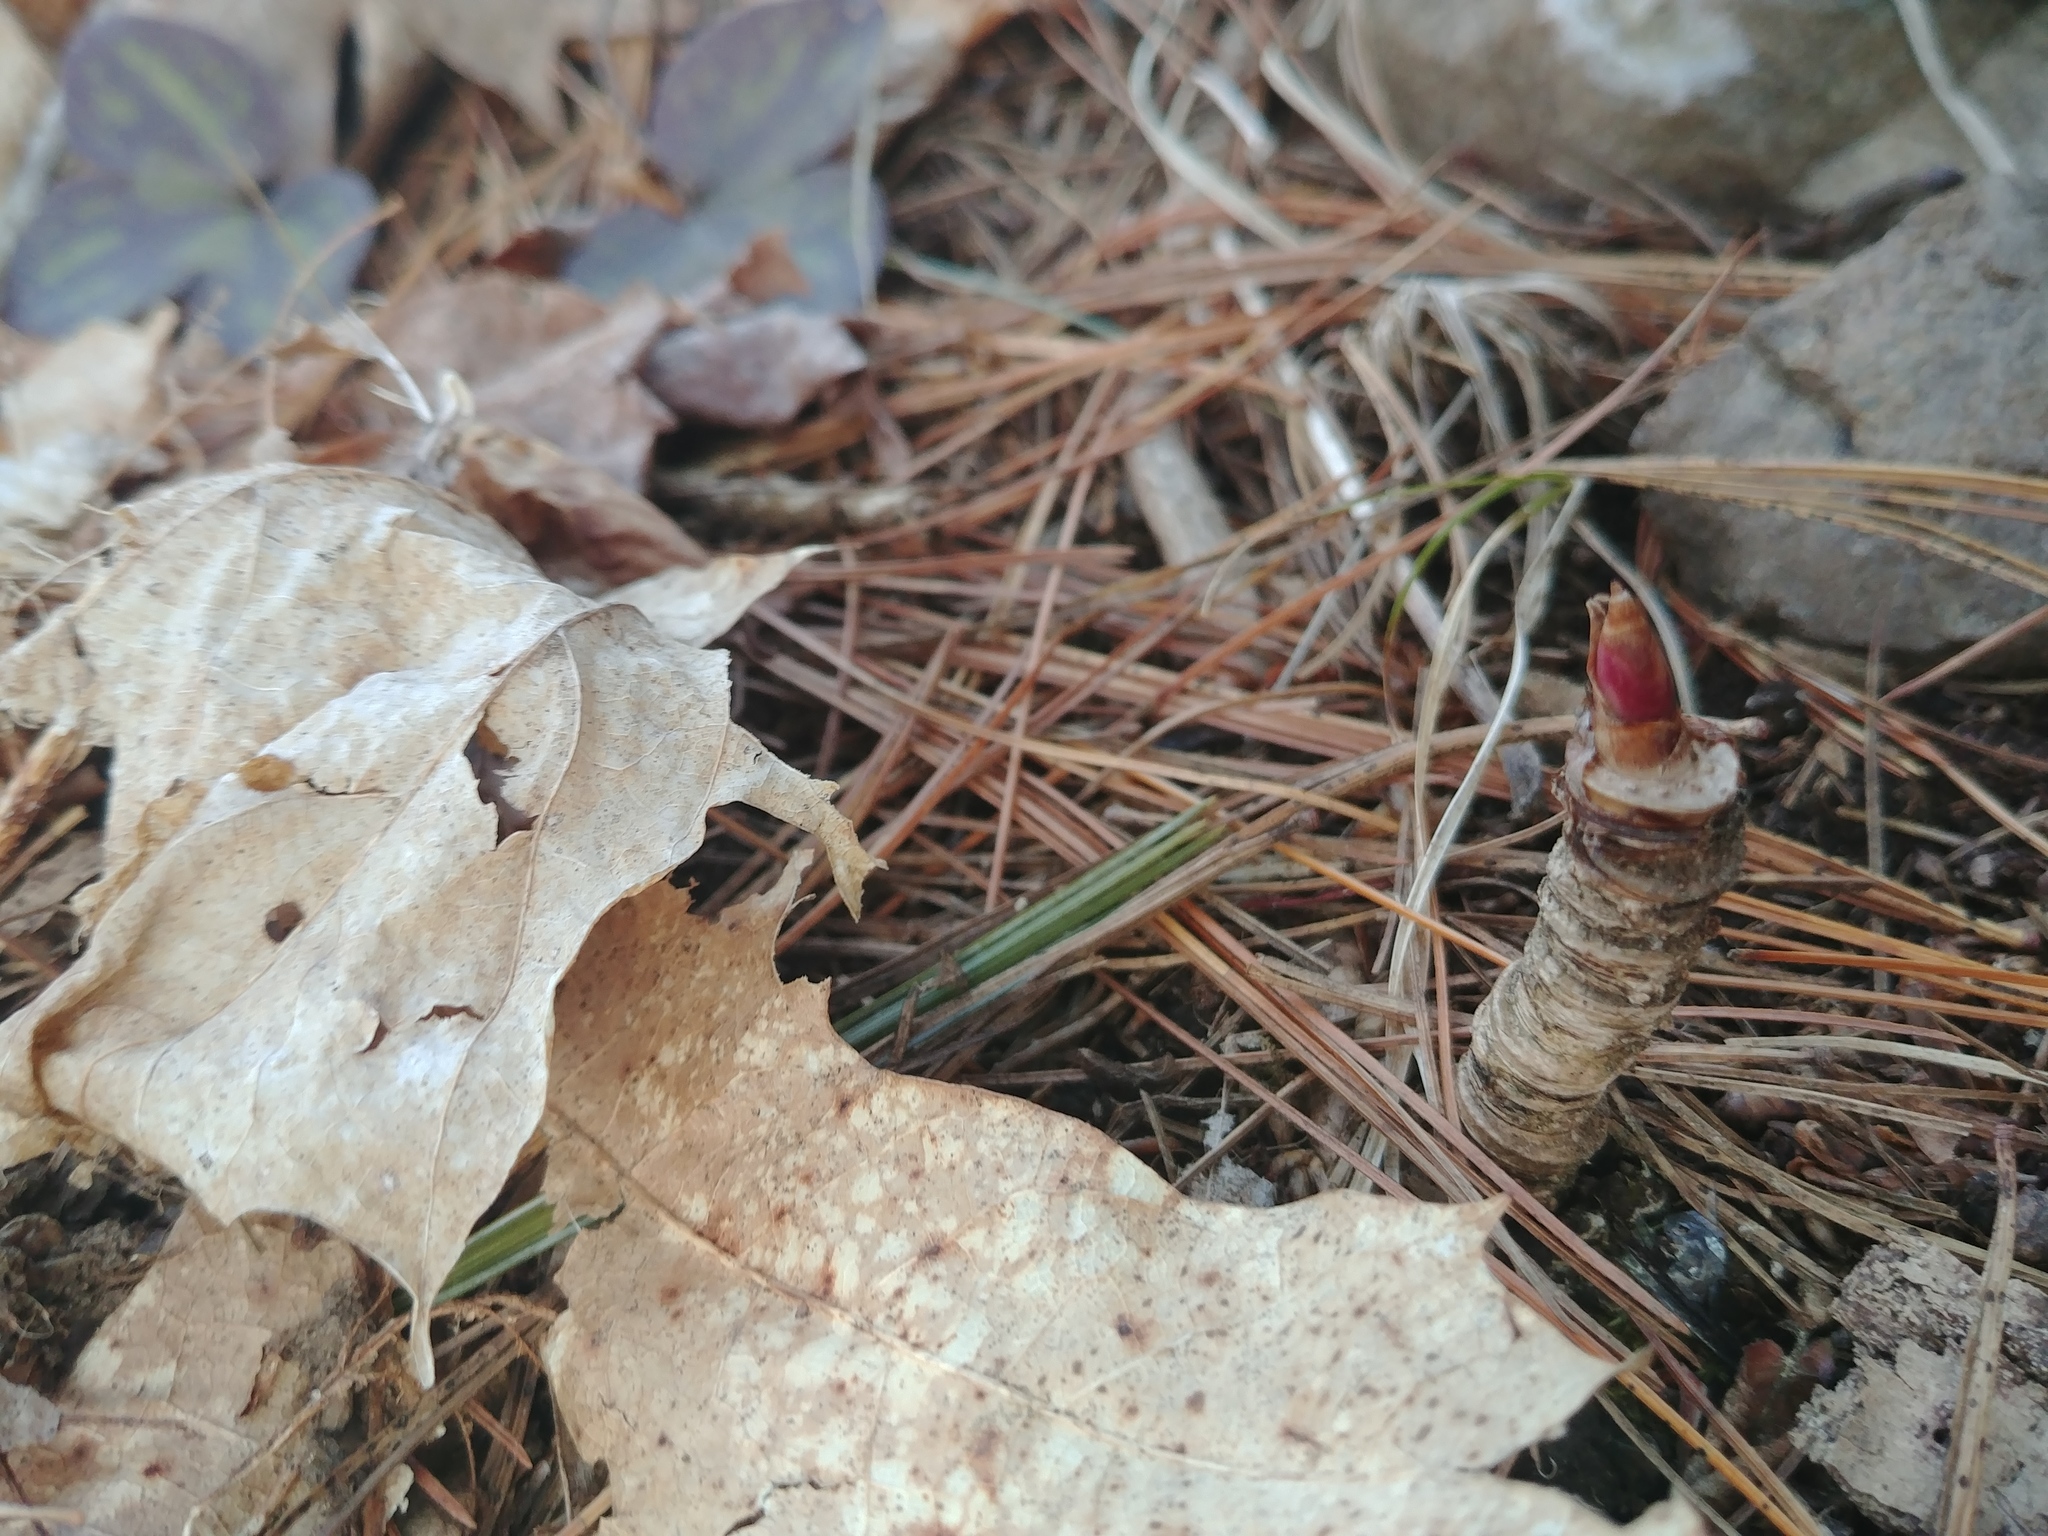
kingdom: Plantae
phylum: Tracheophyta
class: Magnoliopsida
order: Apiales
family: Araliaceae
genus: Aralia
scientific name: Aralia nudicaulis
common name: Wild sarsaparilla
